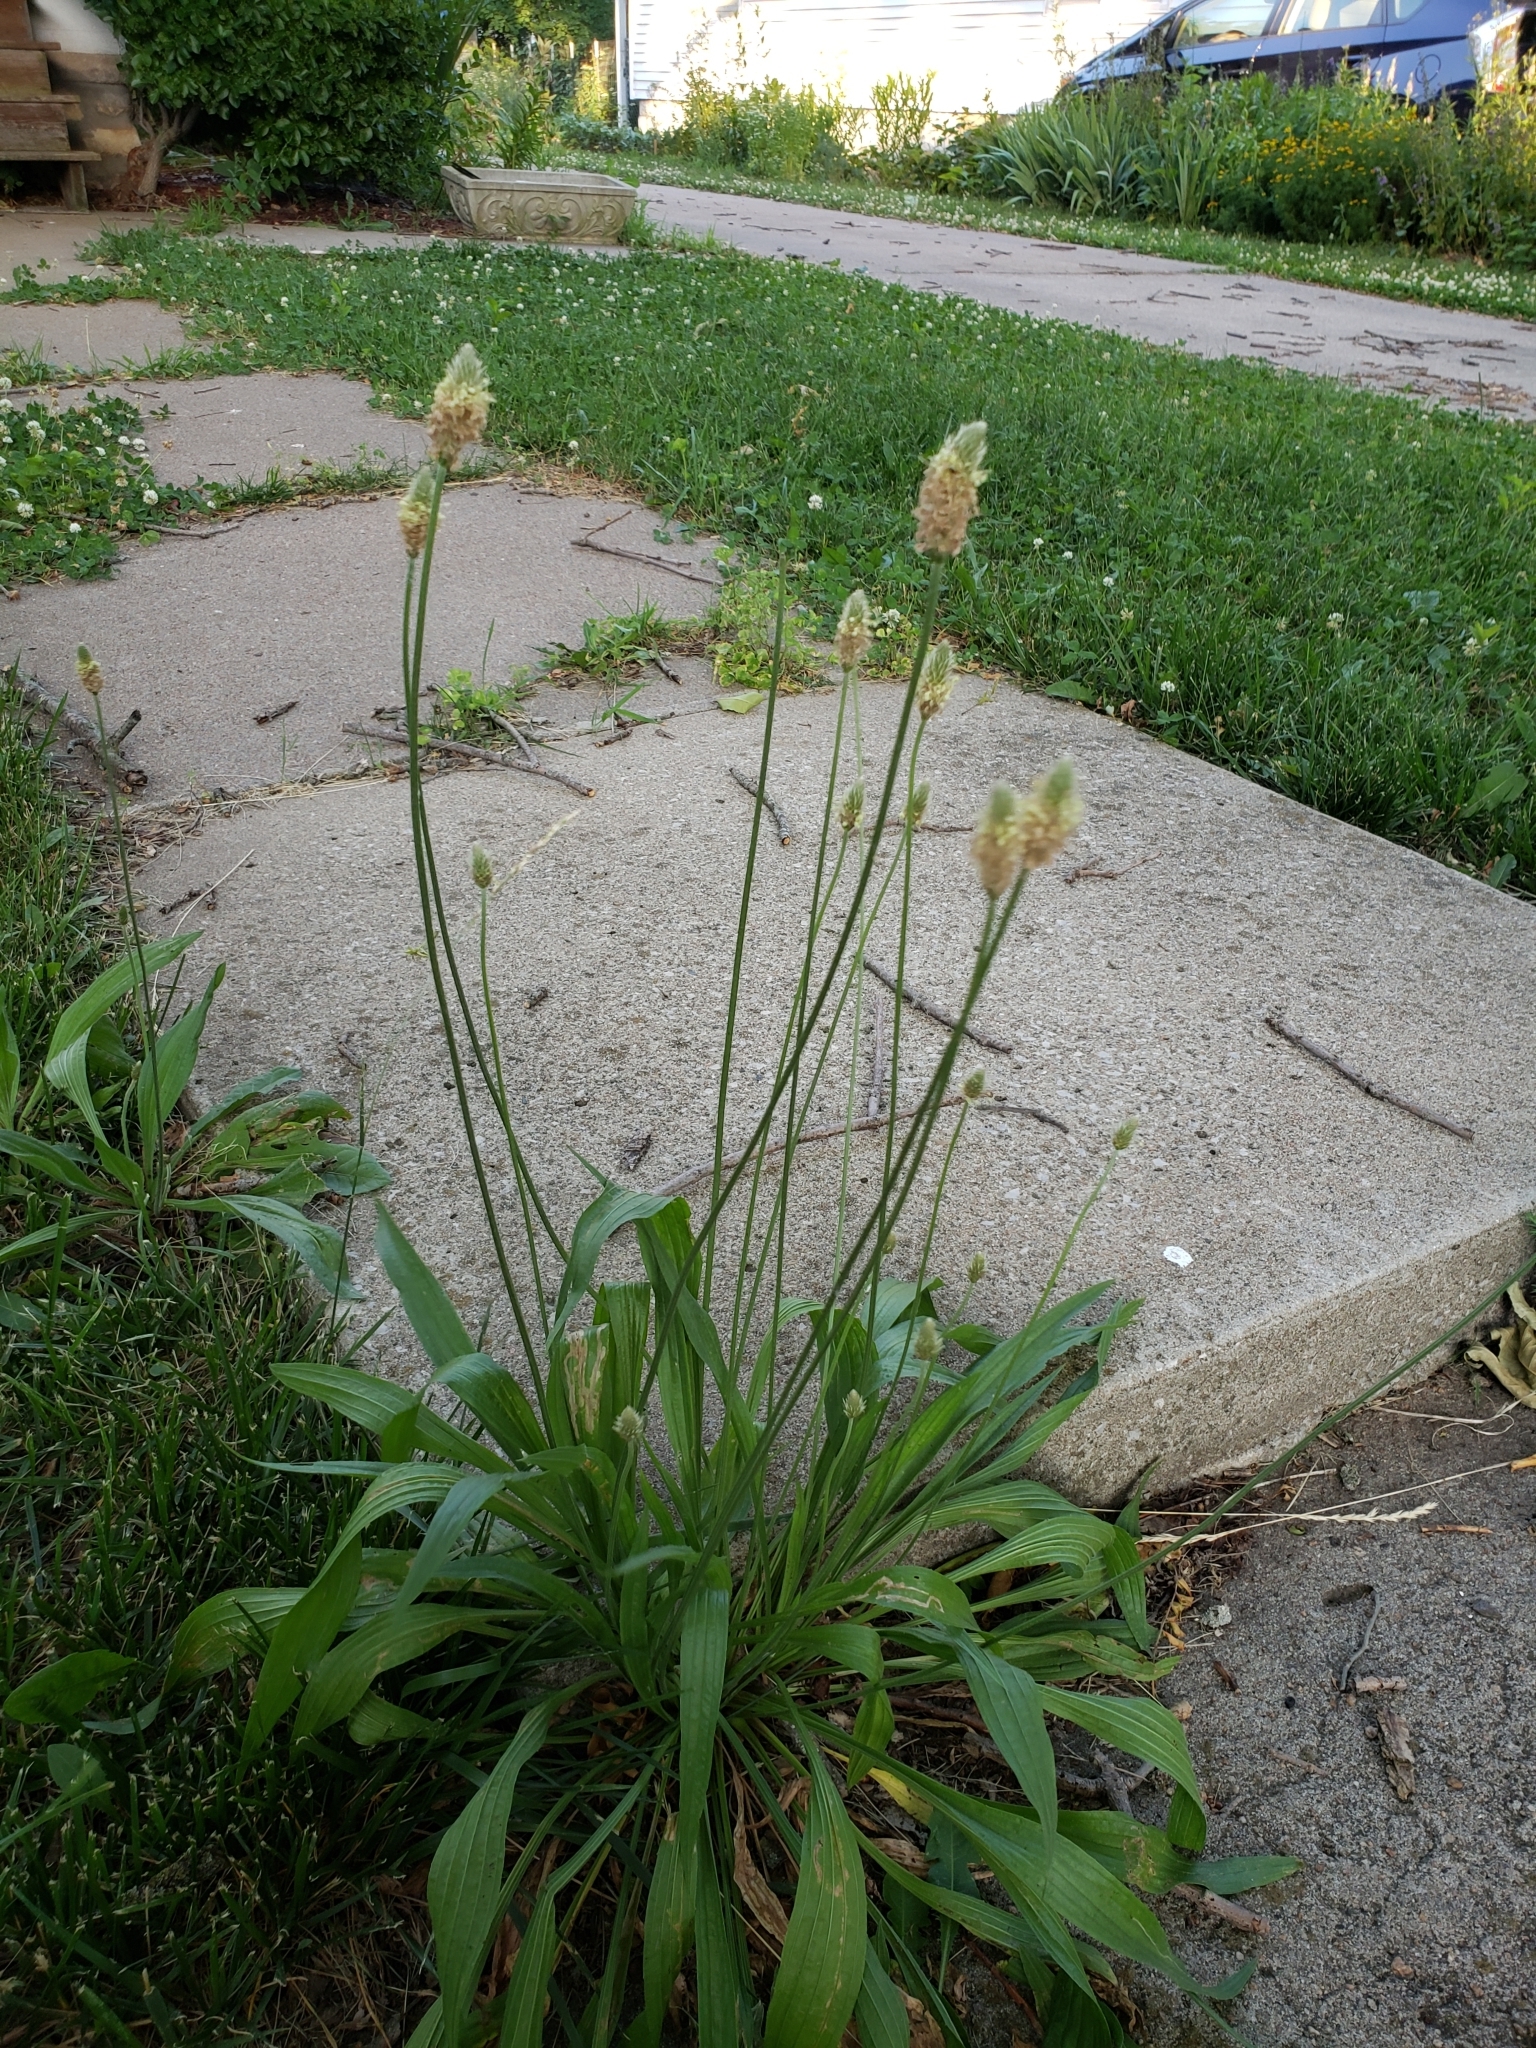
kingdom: Plantae
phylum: Tracheophyta
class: Magnoliopsida
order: Lamiales
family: Plantaginaceae
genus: Plantago
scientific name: Plantago lanceolata
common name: Ribwort plantain
